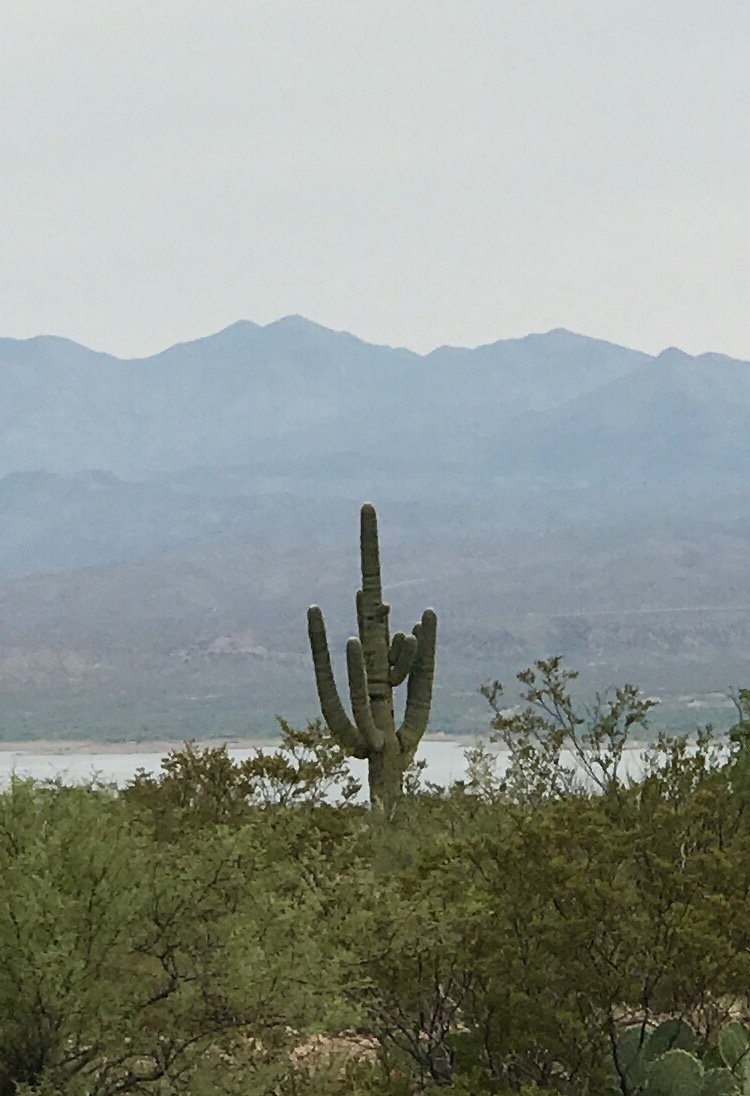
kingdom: Plantae
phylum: Tracheophyta
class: Magnoliopsida
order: Caryophyllales
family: Cactaceae
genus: Carnegiea
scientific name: Carnegiea gigantea
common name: Saguaro
